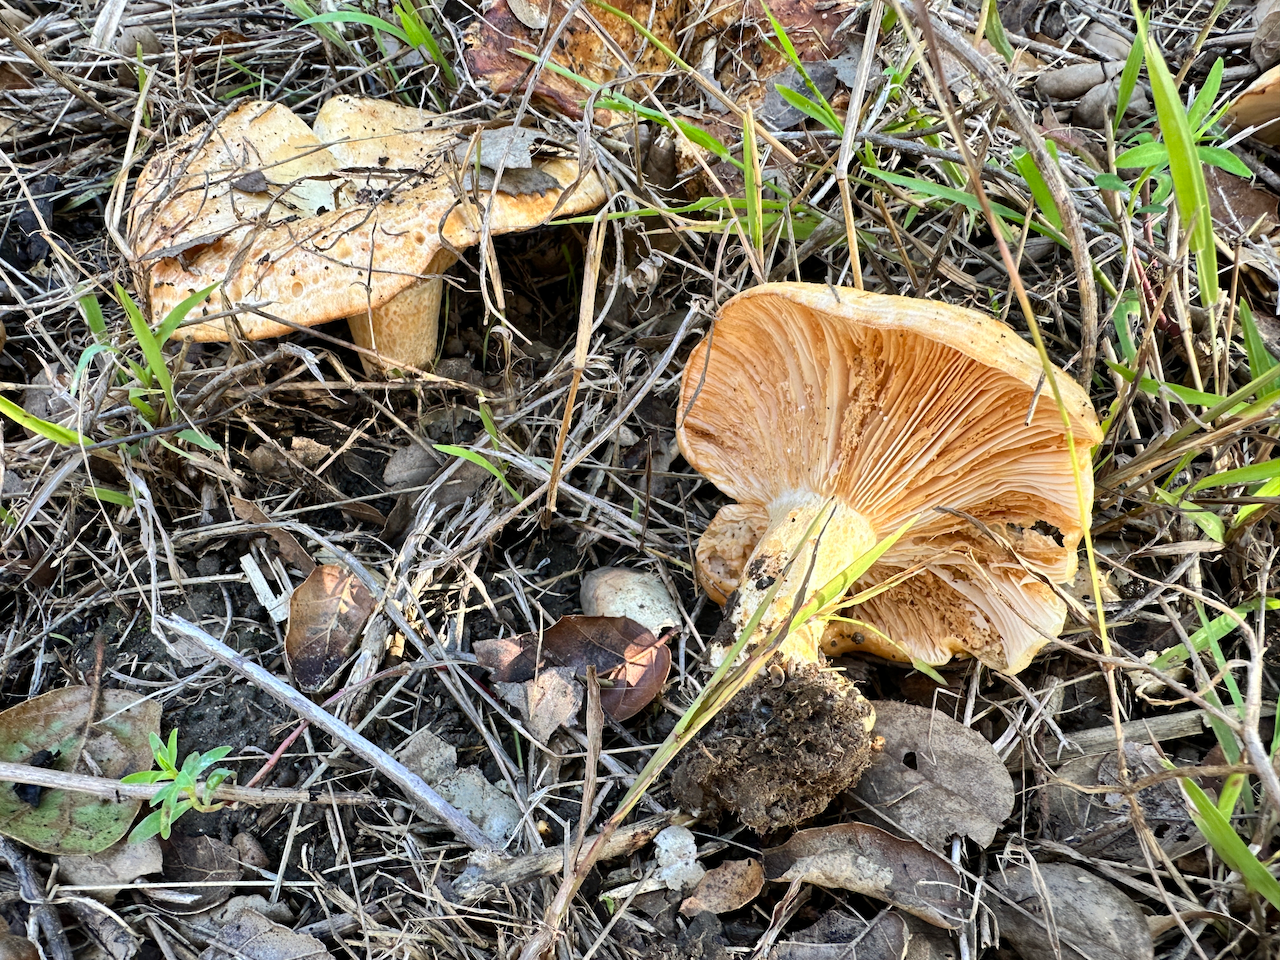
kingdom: Fungi
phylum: Basidiomycota
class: Agaricomycetes
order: Russulales
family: Russulaceae
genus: Lactarius
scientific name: Lactarius alnicola
